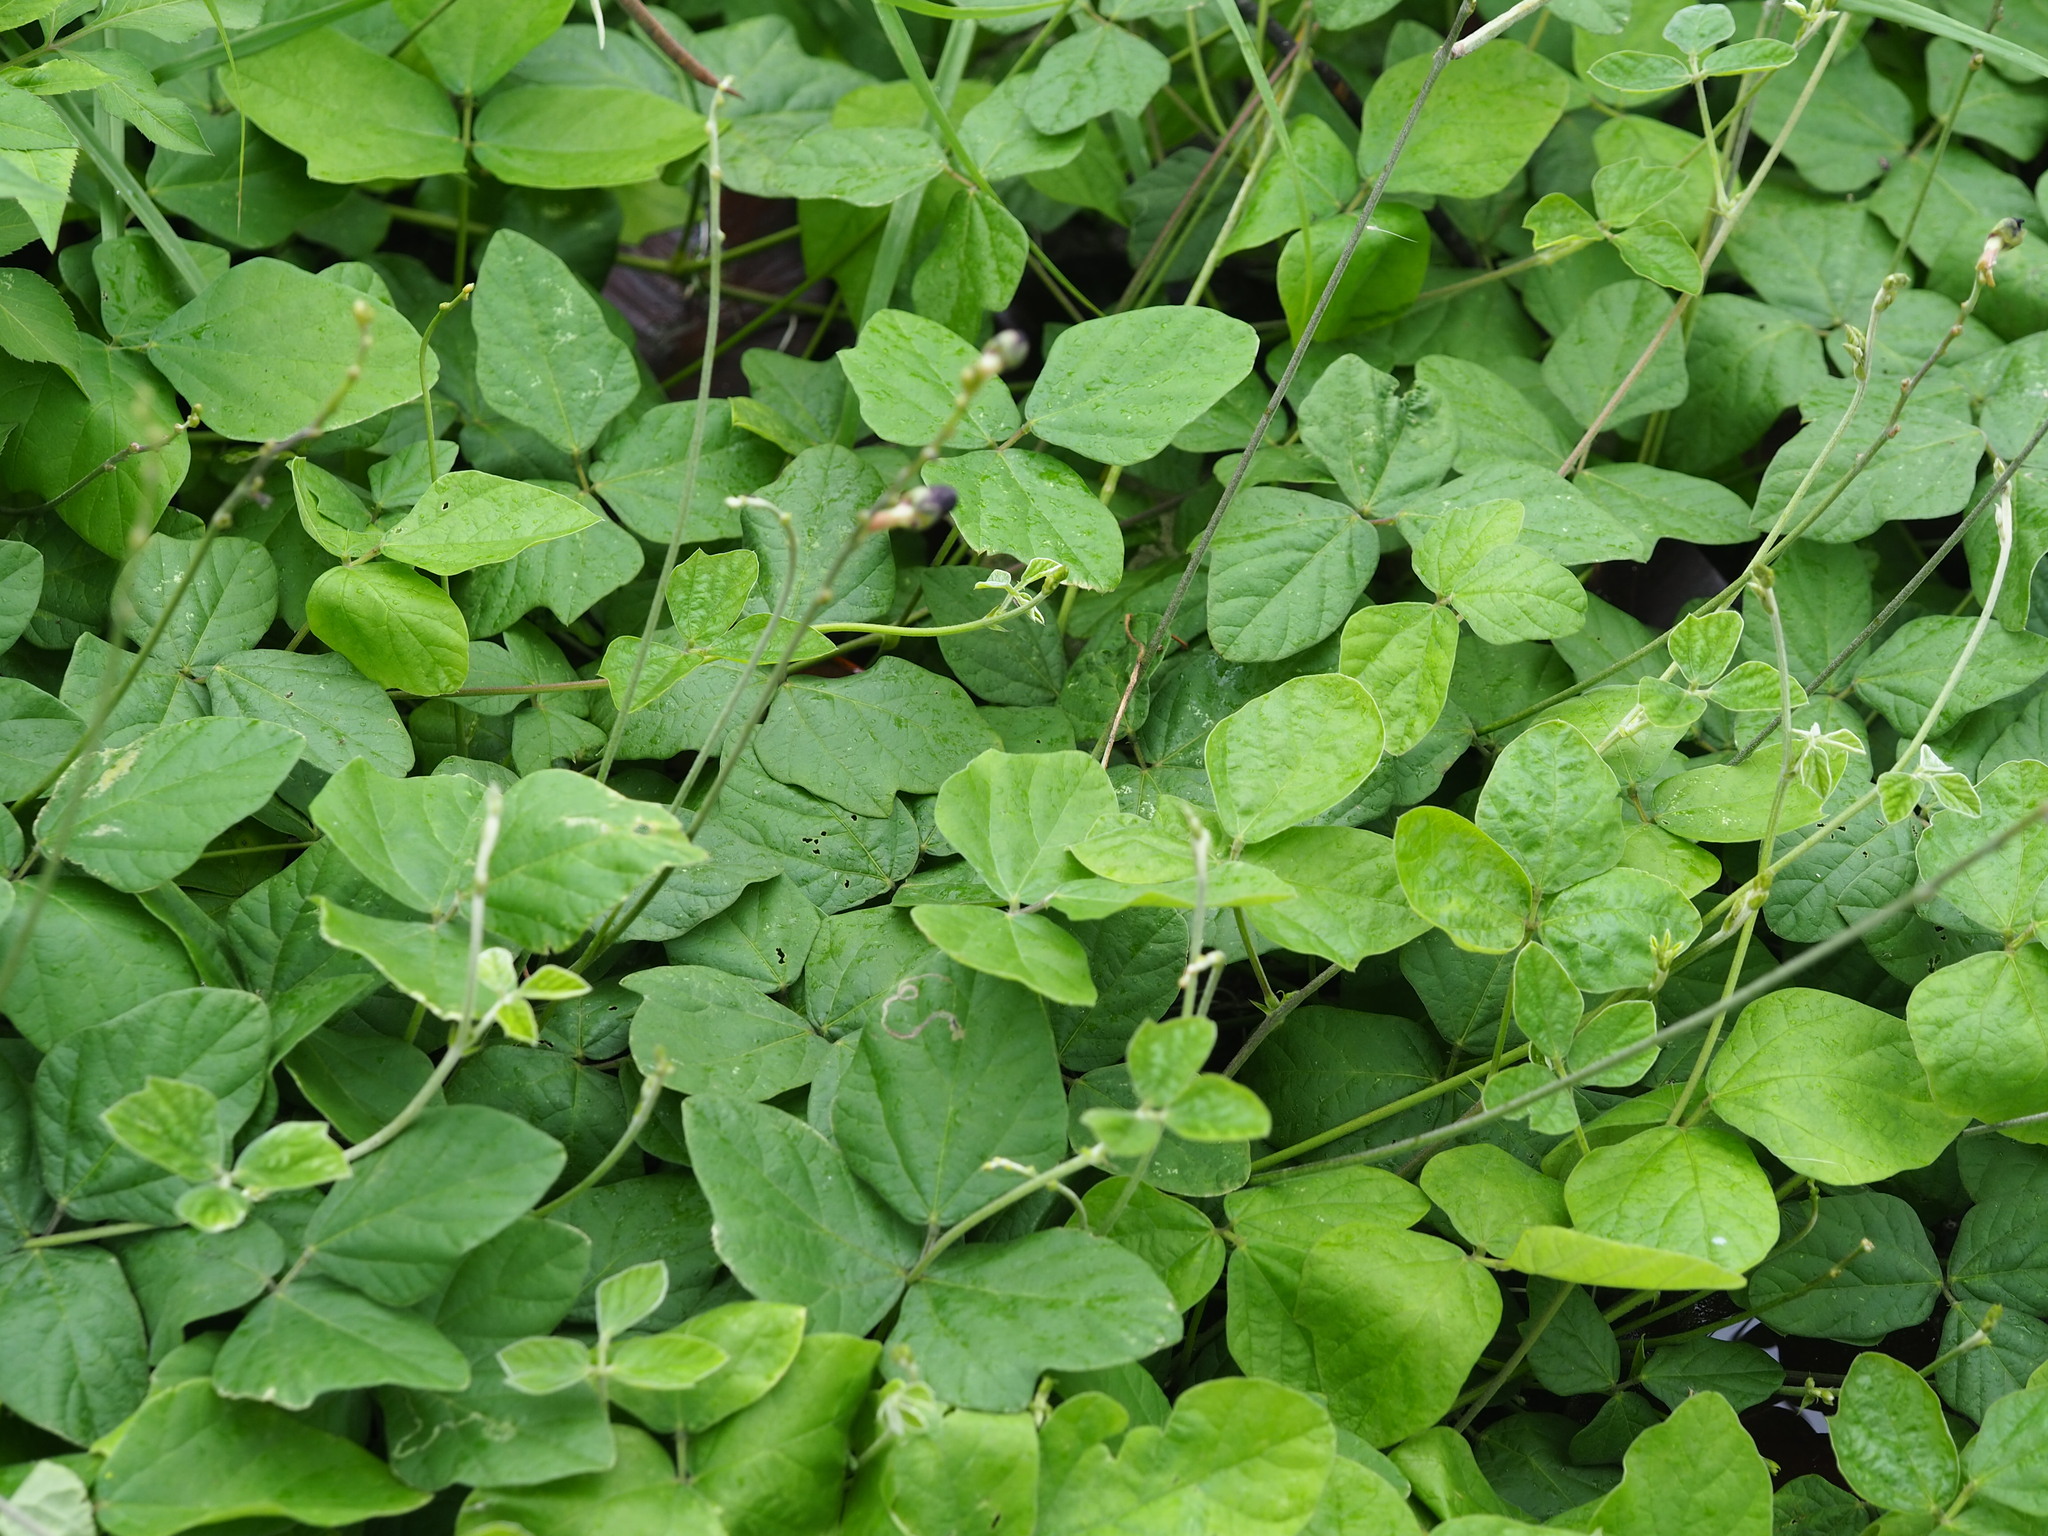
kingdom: Plantae
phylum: Tracheophyta
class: Magnoliopsida
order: Fabales
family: Fabaceae
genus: Macroptilium
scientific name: Macroptilium atropurpureum
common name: Purple bushbean
